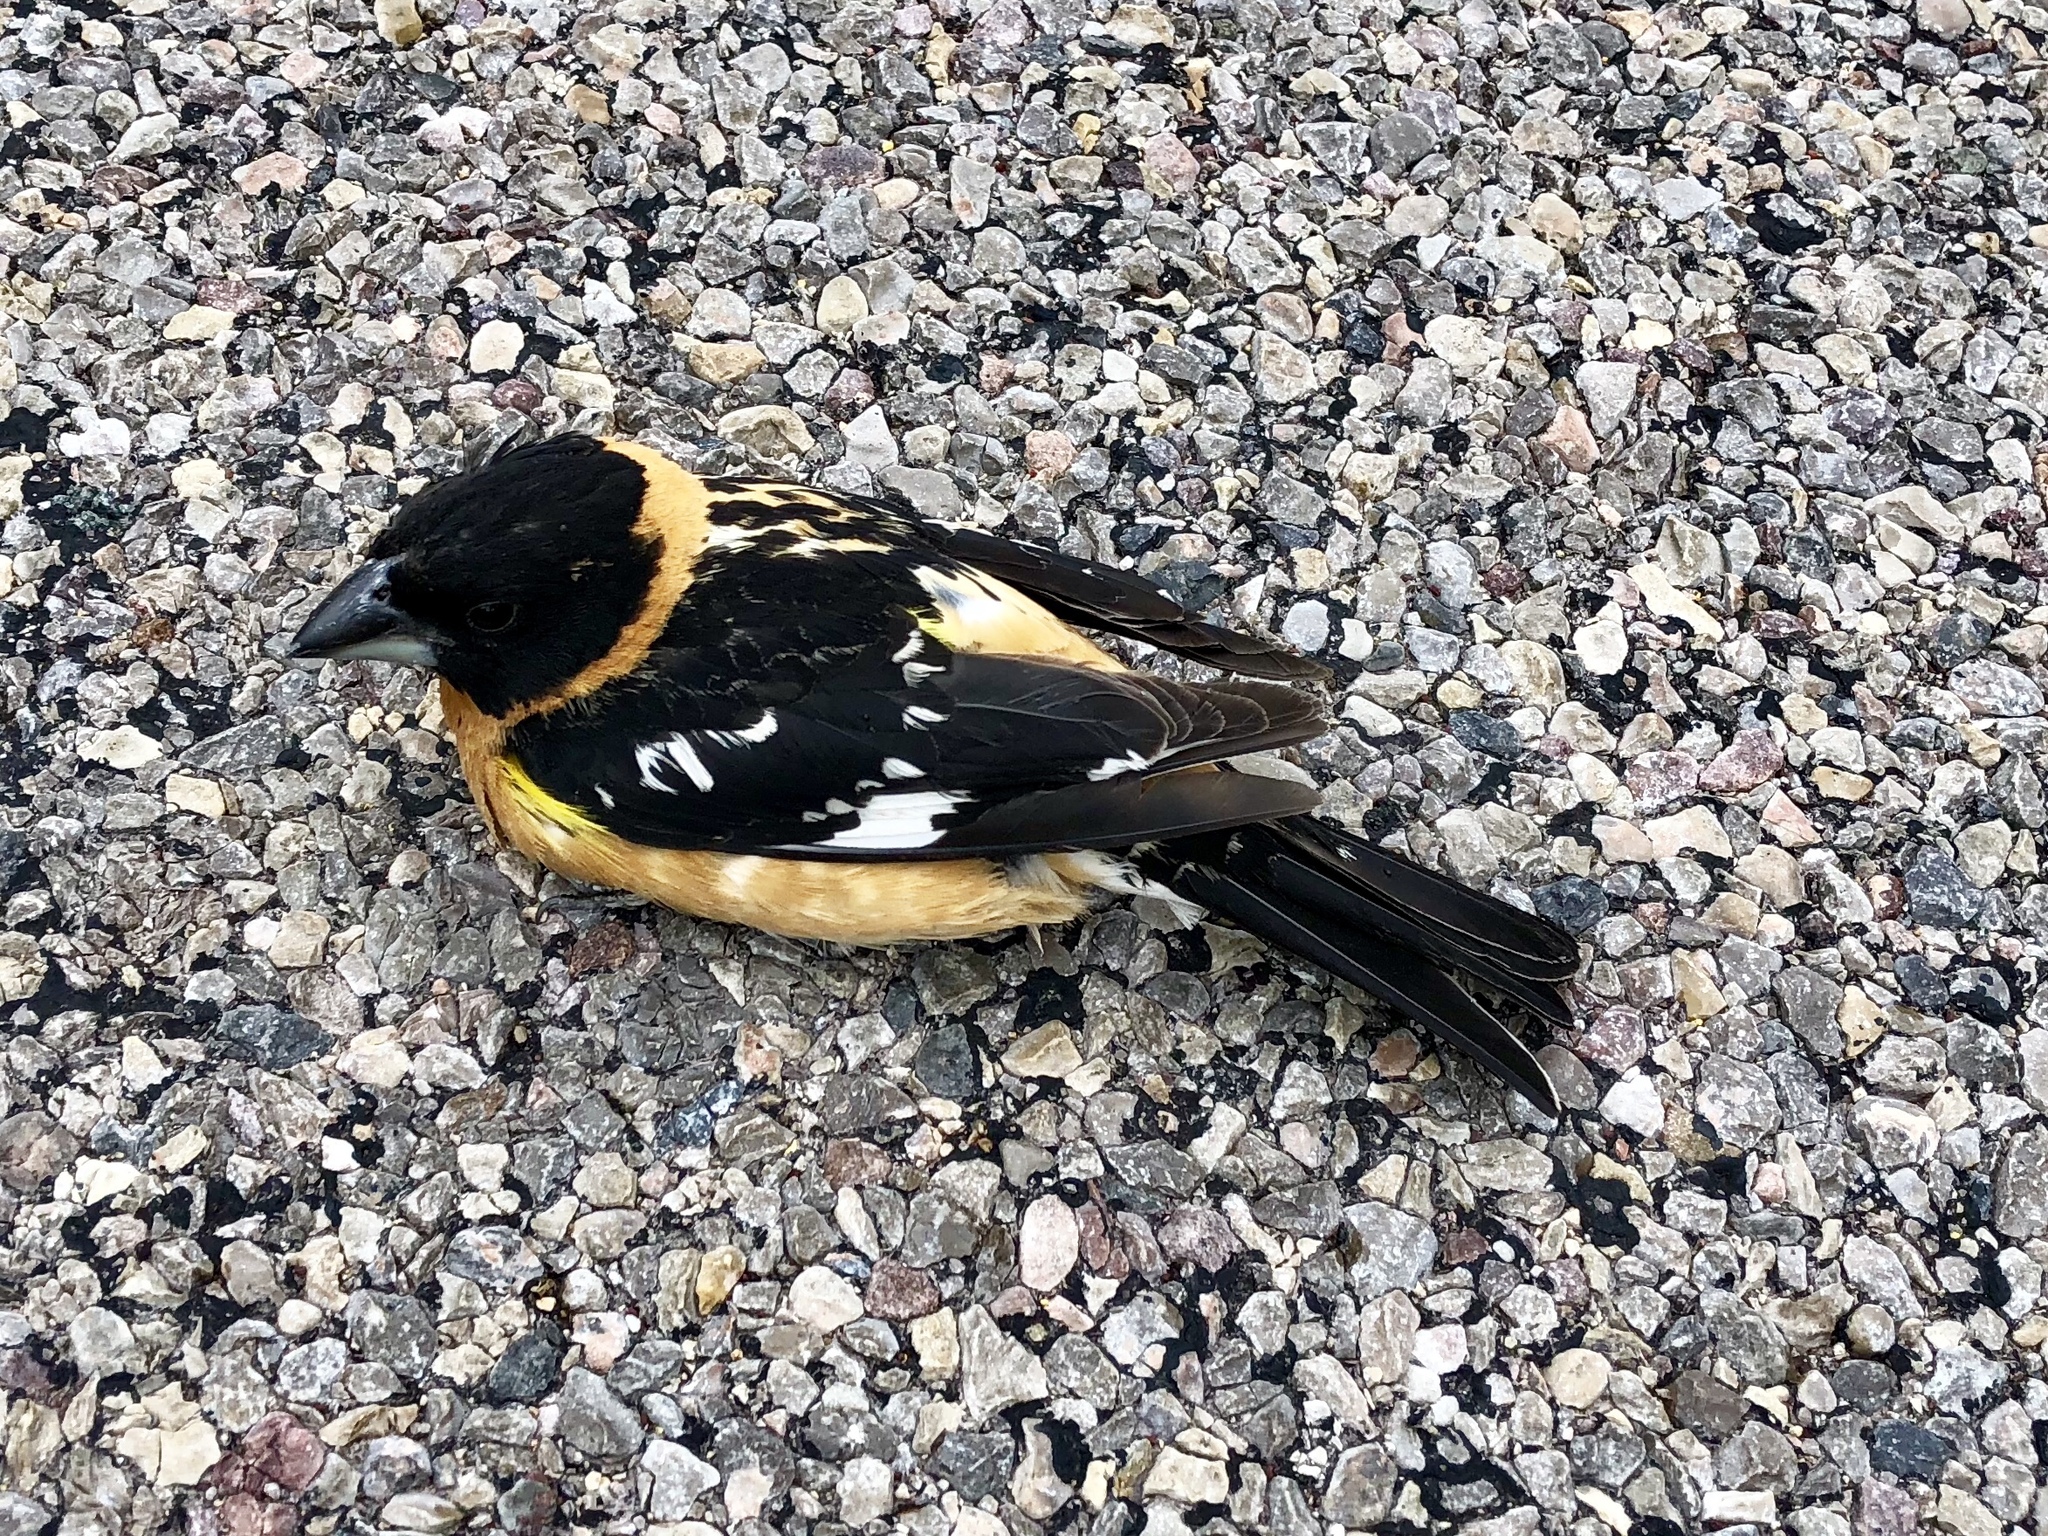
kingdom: Animalia
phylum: Chordata
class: Aves
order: Passeriformes
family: Cardinalidae
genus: Pheucticus
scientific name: Pheucticus melanocephalus
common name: Black-headed grosbeak
